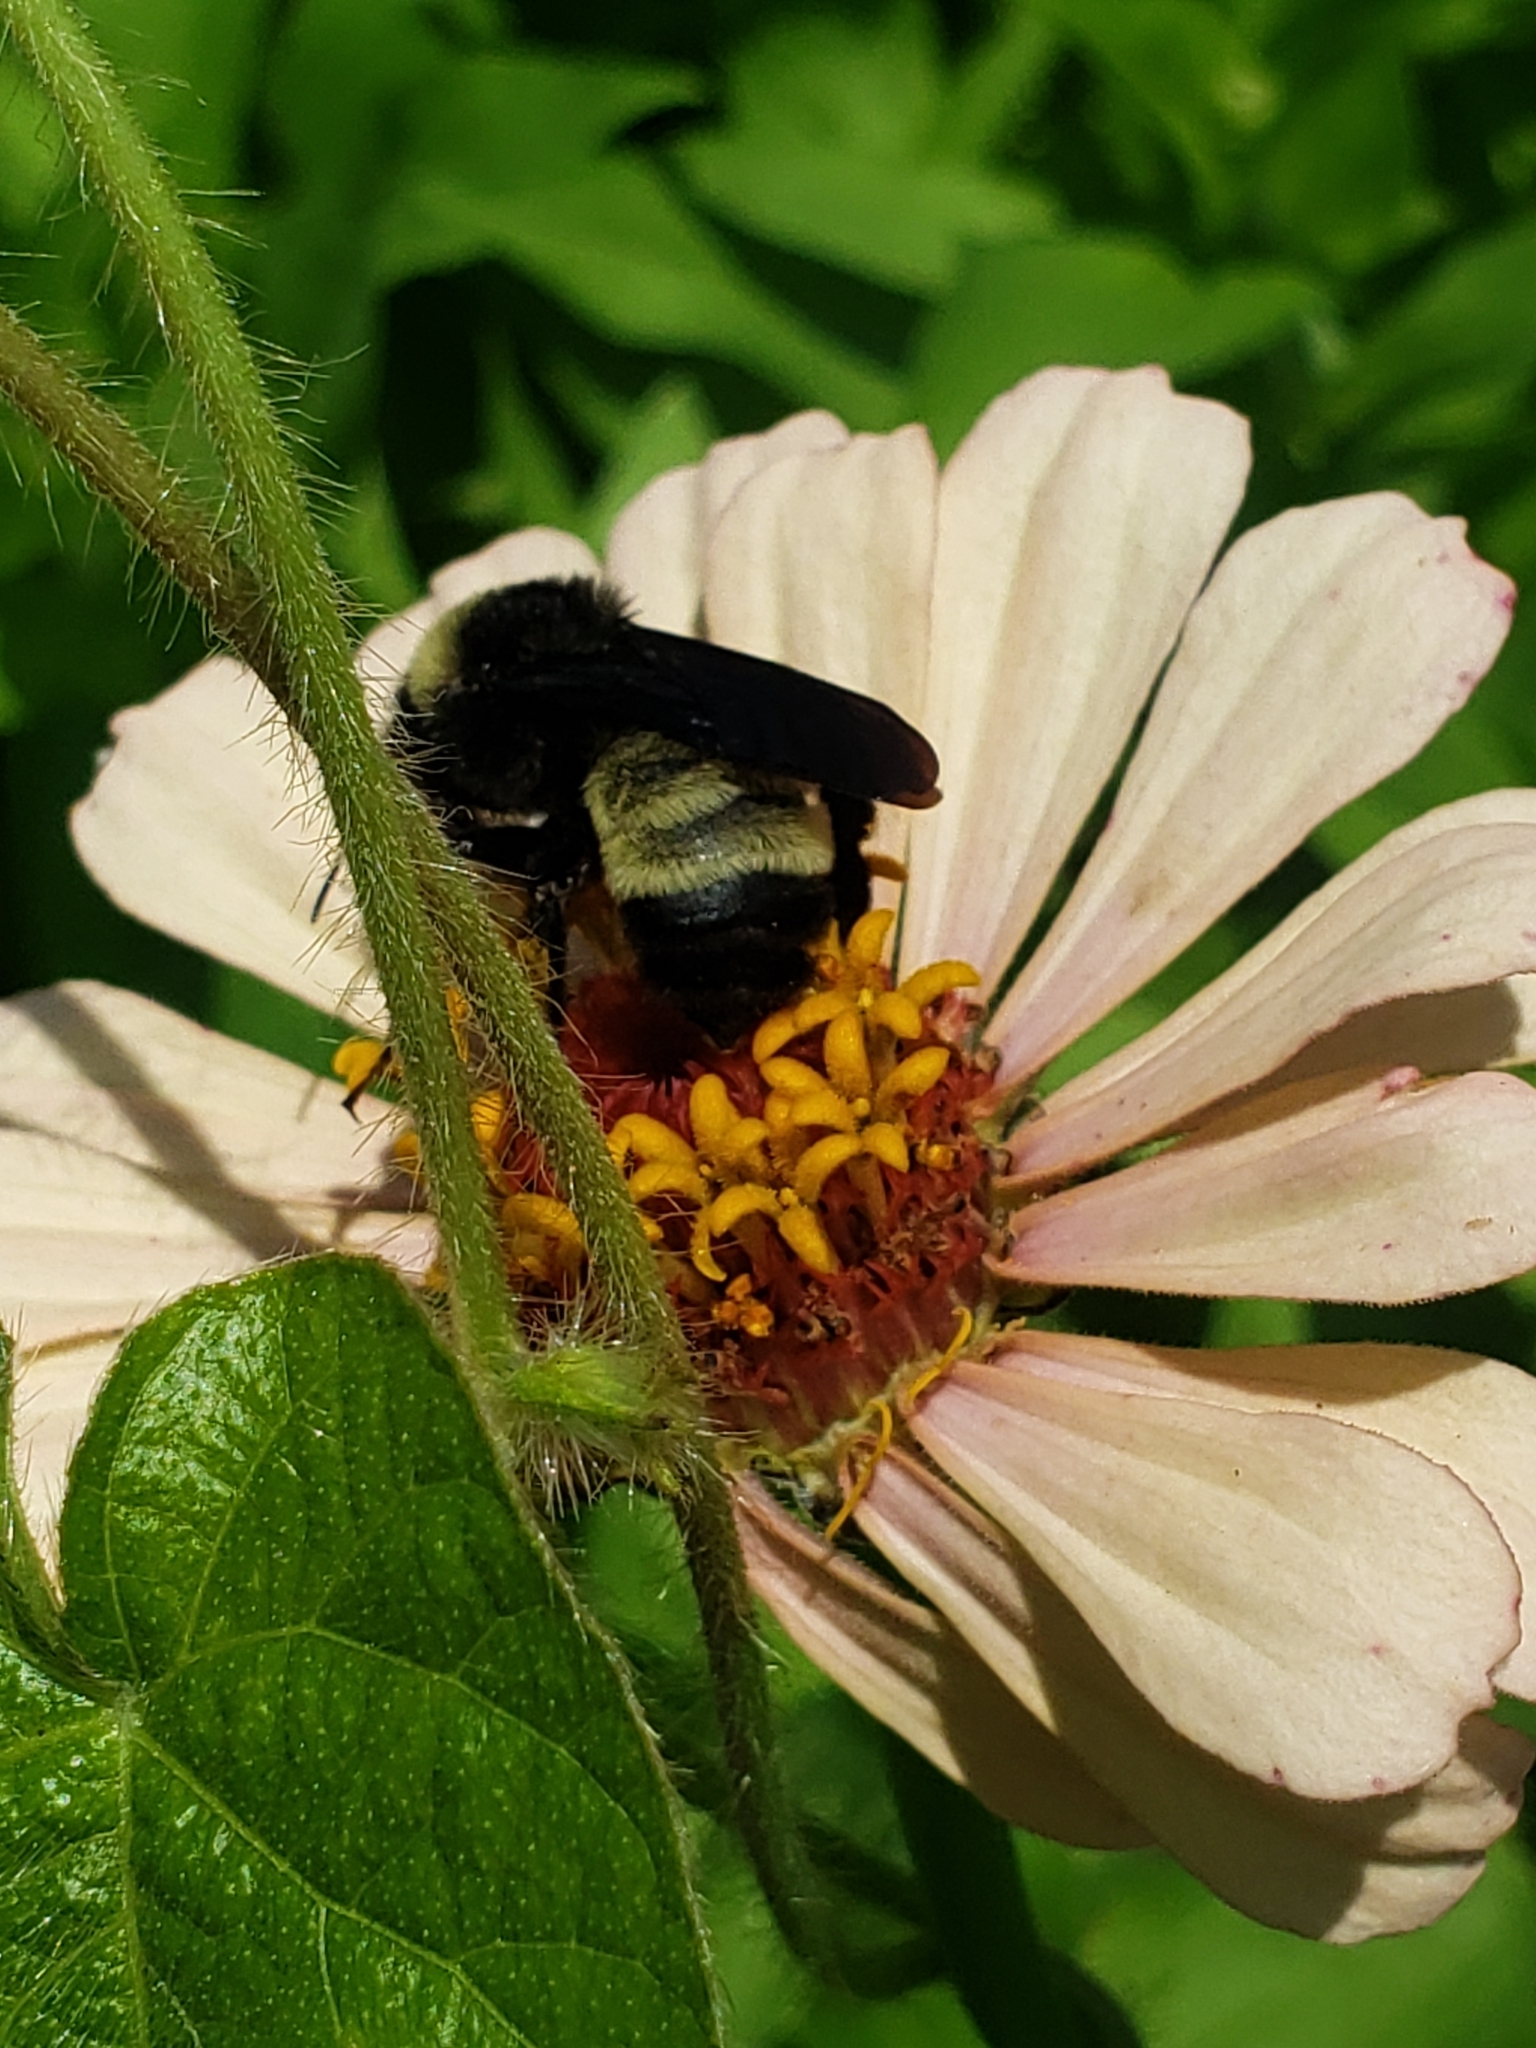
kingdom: Animalia
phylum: Arthropoda
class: Insecta
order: Hymenoptera
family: Apidae
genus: Bombus
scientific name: Bombus pensylvanicus
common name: Bumble bee
